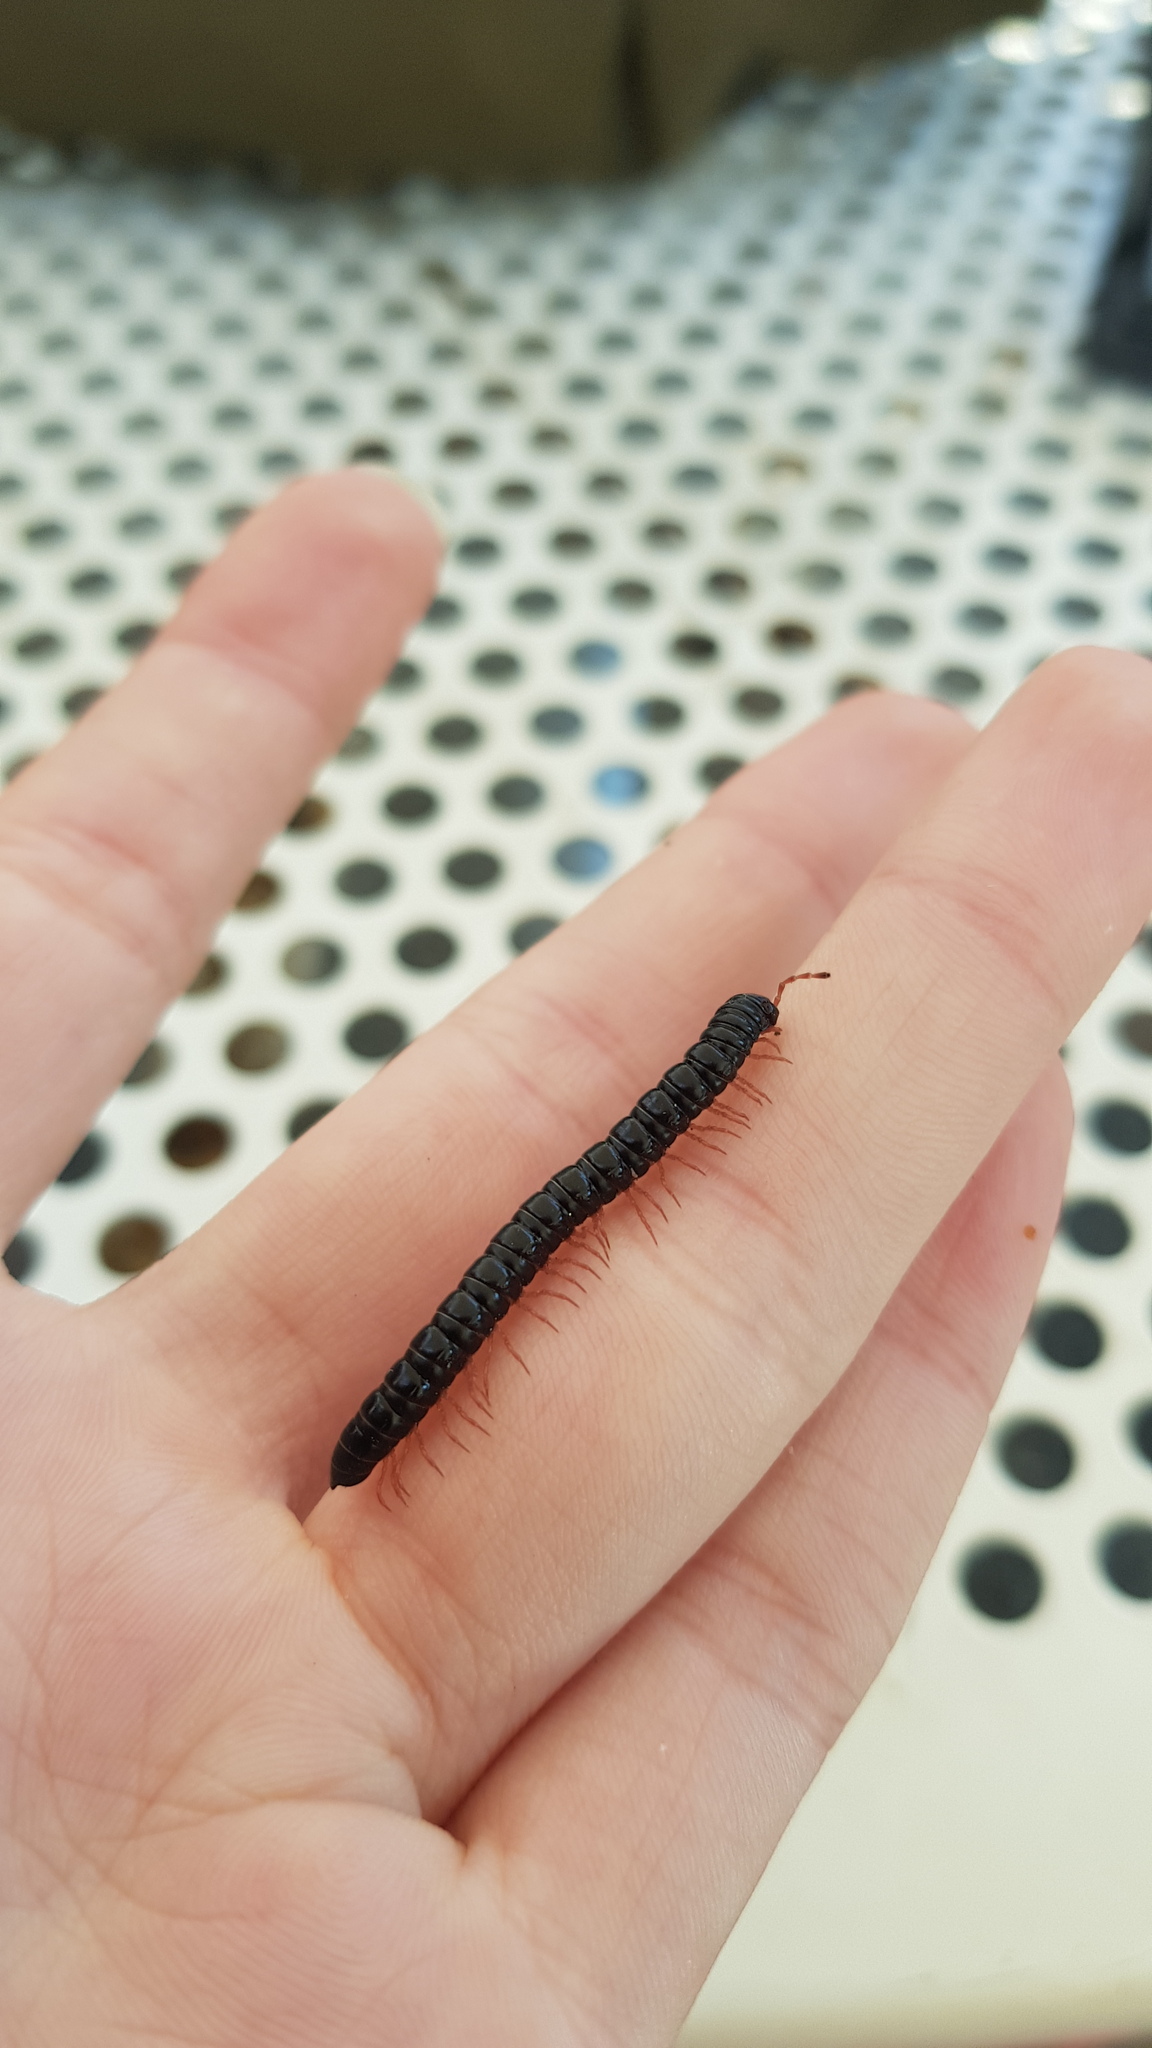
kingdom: Animalia
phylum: Arthropoda
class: Diplopoda
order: Polydesmida
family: Paradoxosomatidae
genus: Heterocladosoma
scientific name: Heterocladosoma
